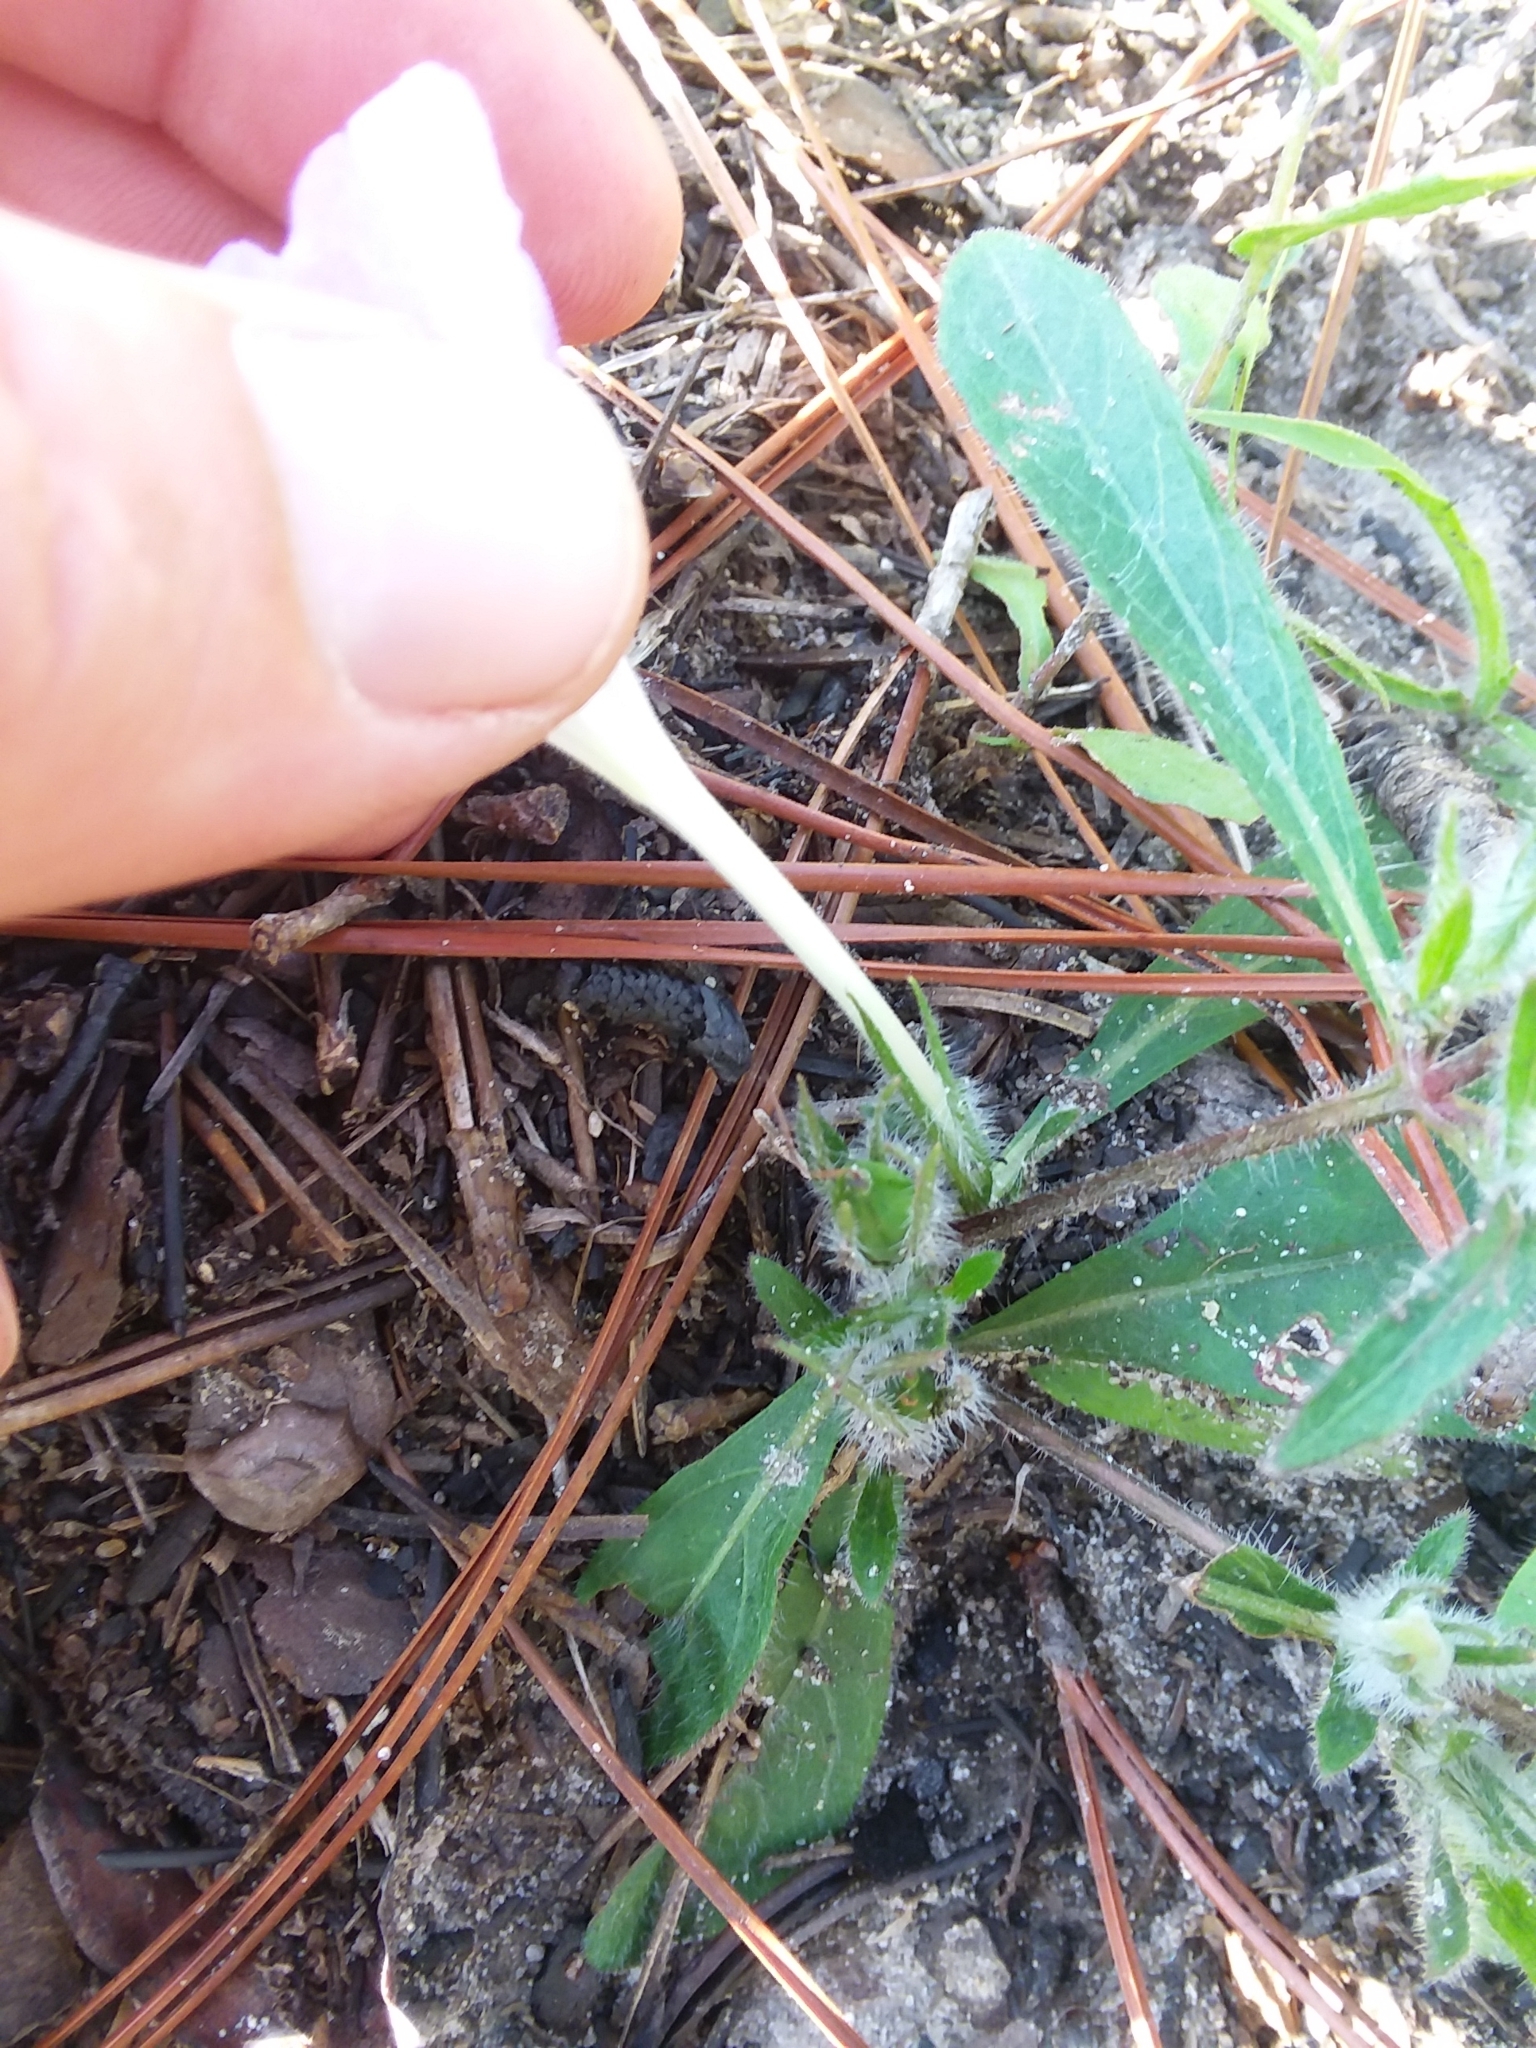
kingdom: Plantae
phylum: Tracheophyta
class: Magnoliopsida
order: Lamiales
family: Acanthaceae
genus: Ruellia
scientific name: Ruellia caroliniensis
